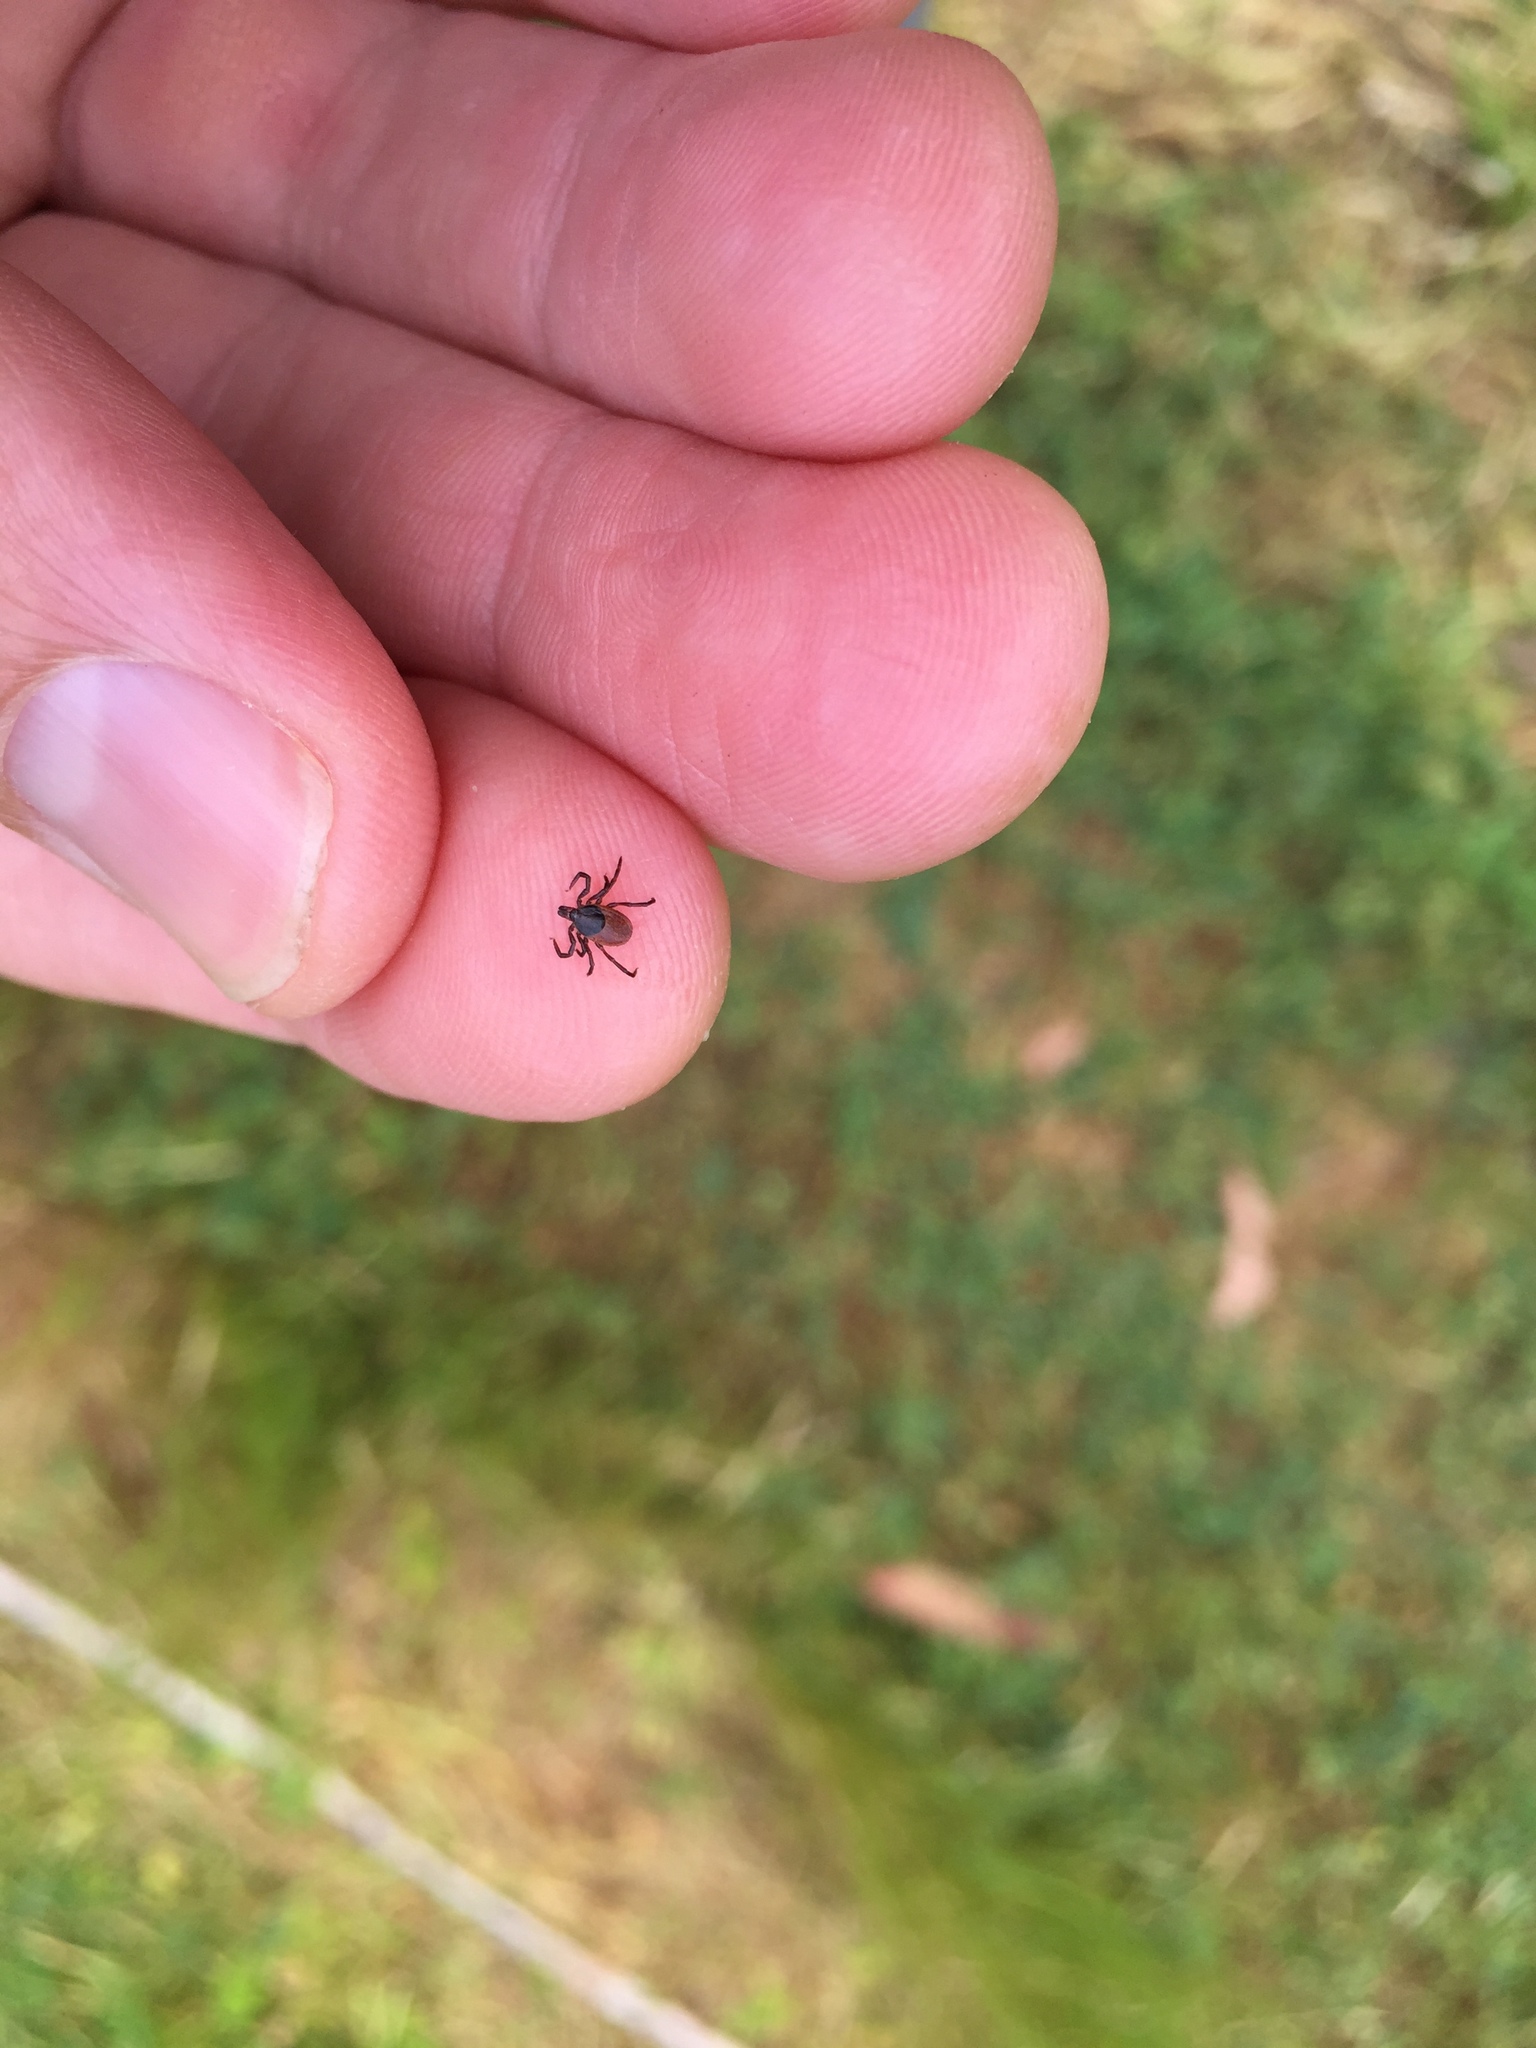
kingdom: Animalia
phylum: Arthropoda
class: Arachnida
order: Ixodida
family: Ixodidae
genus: Ixodes
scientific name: Ixodes pacificus
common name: California black-legged tick
